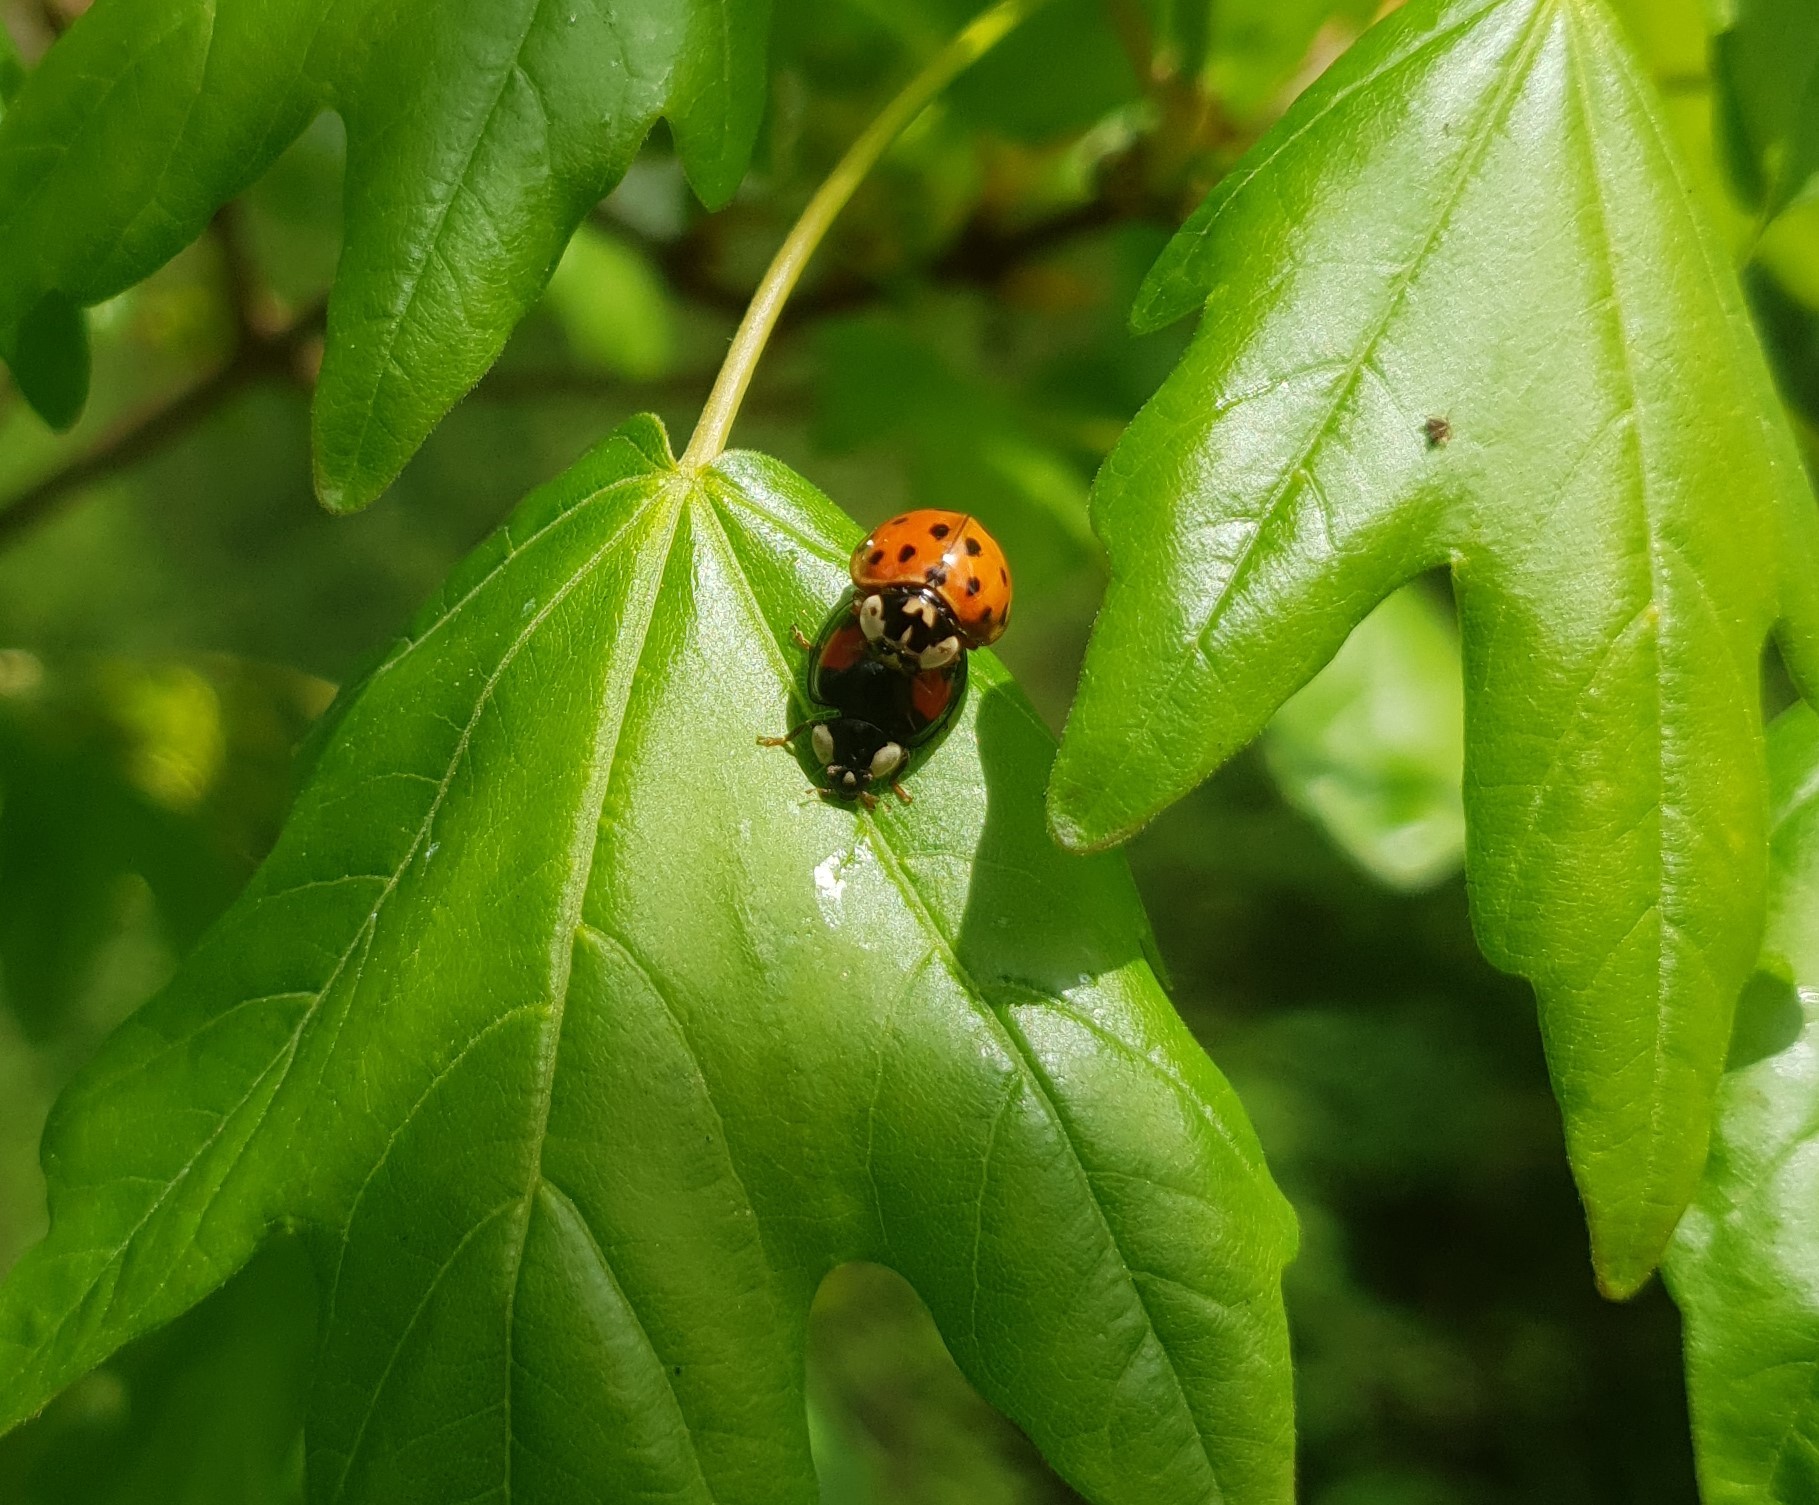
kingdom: Animalia
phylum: Arthropoda
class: Insecta
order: Coleoptera
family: Coccinellidae
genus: Harmonia
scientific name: Harmonia axyridis
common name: Harlequin ladybird
